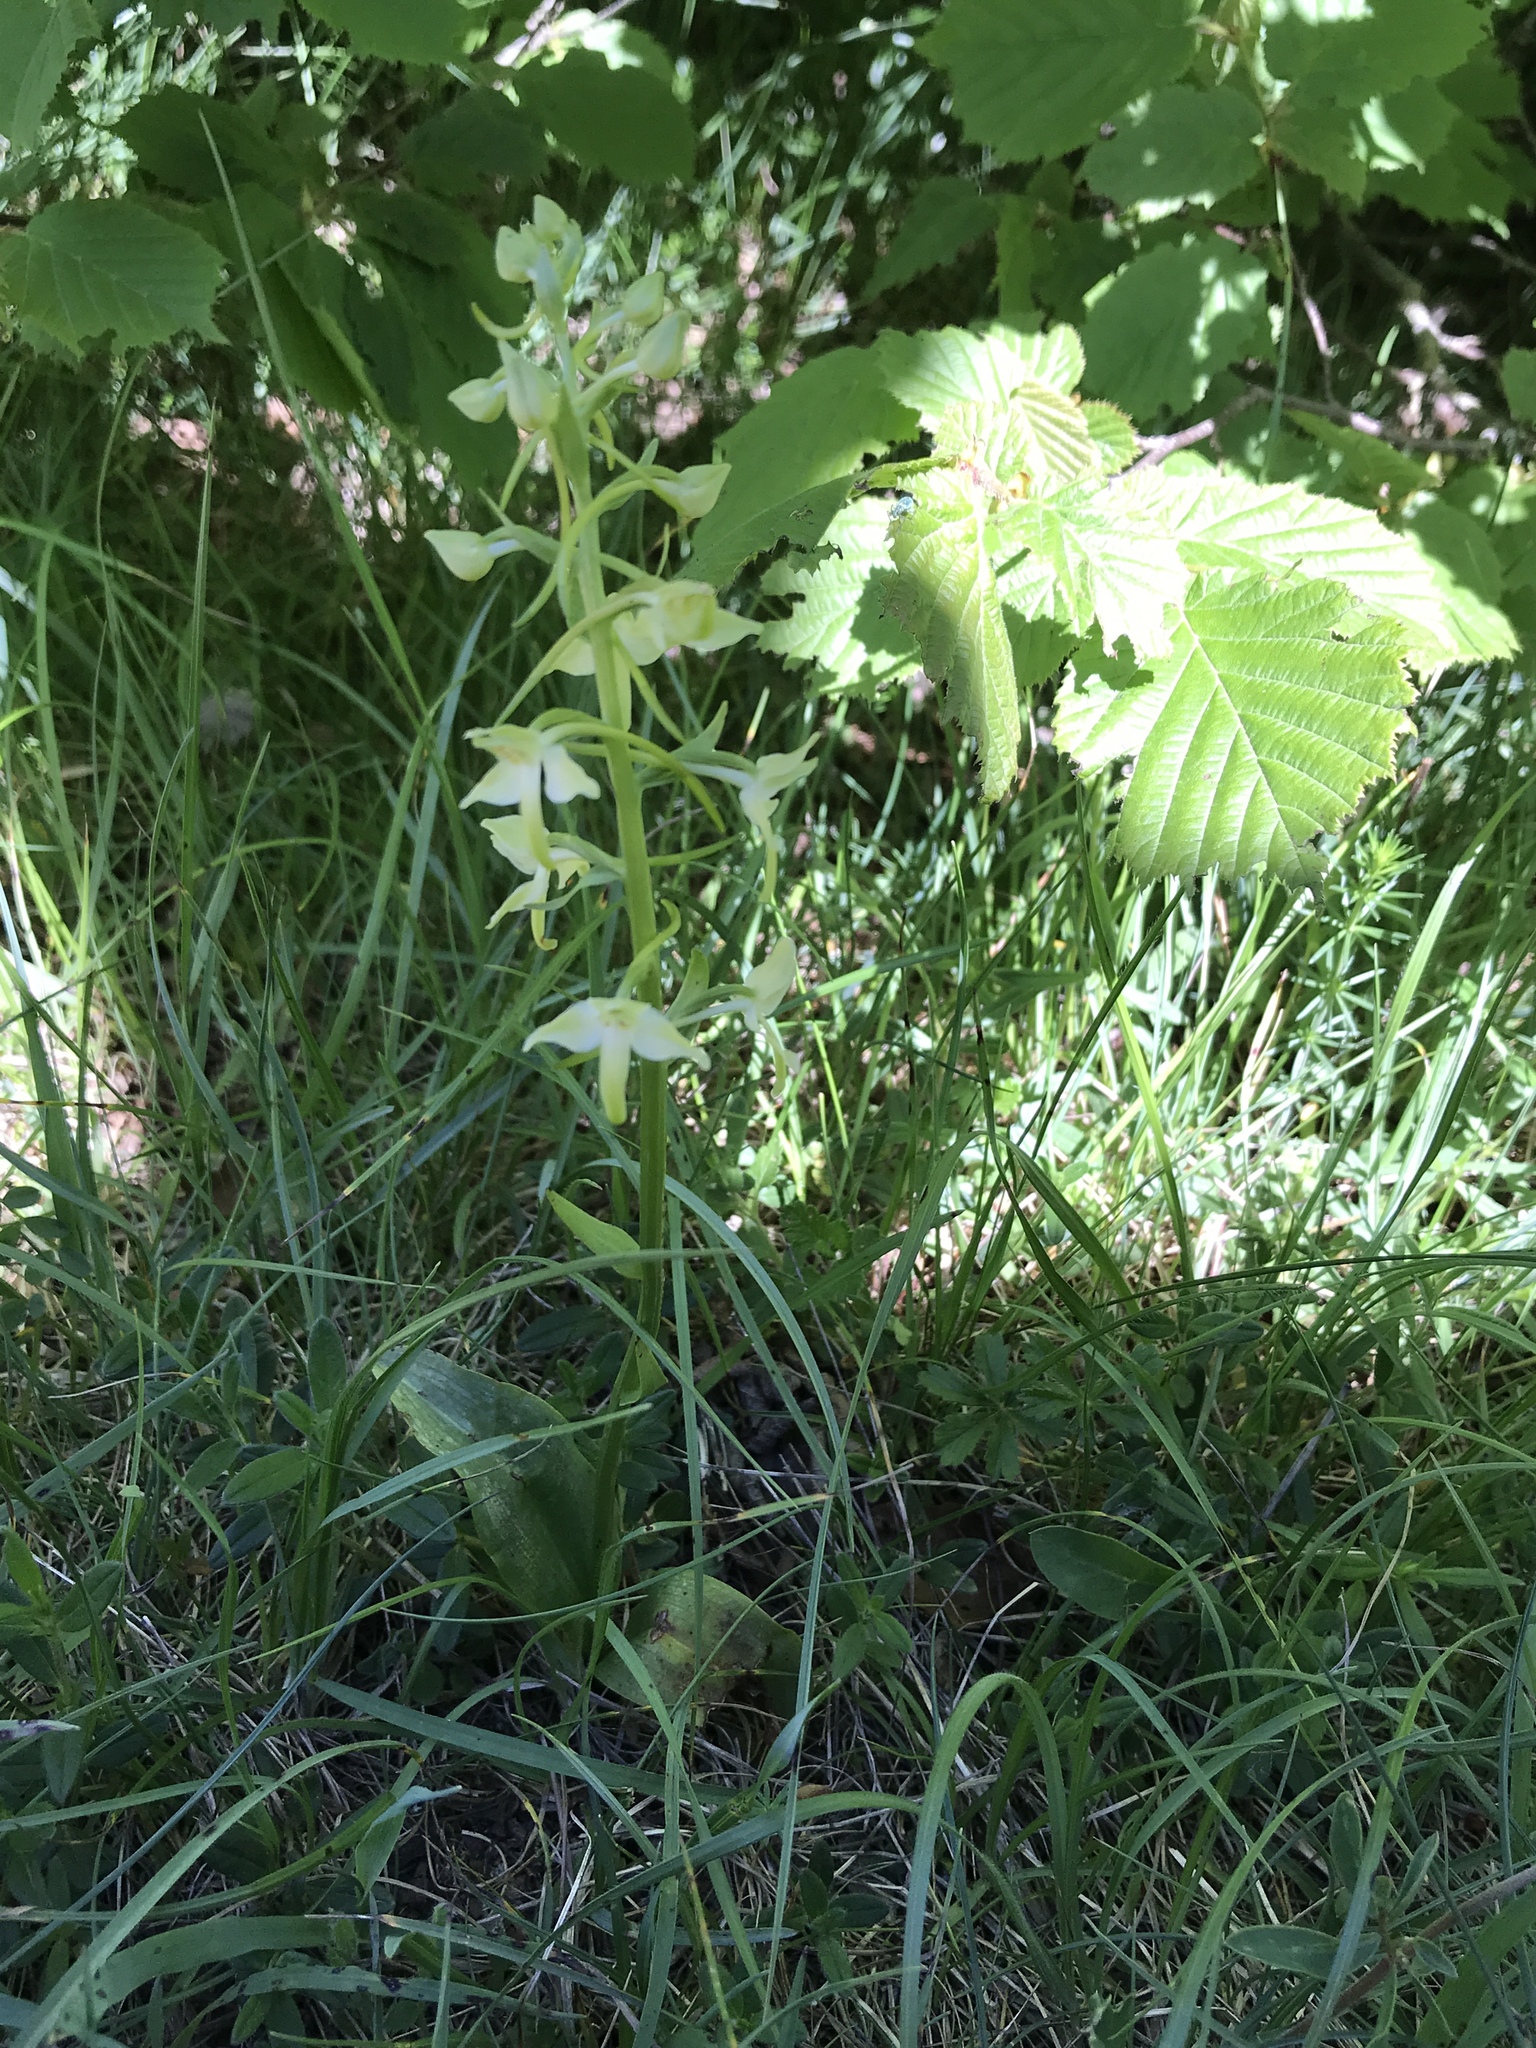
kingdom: Plantae
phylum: Tracheophyta
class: Liliopsida
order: Asparagales
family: Orchidaceae
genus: Platanthera
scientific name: Platanthera chlorantha
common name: Greater butterfly-orchid
